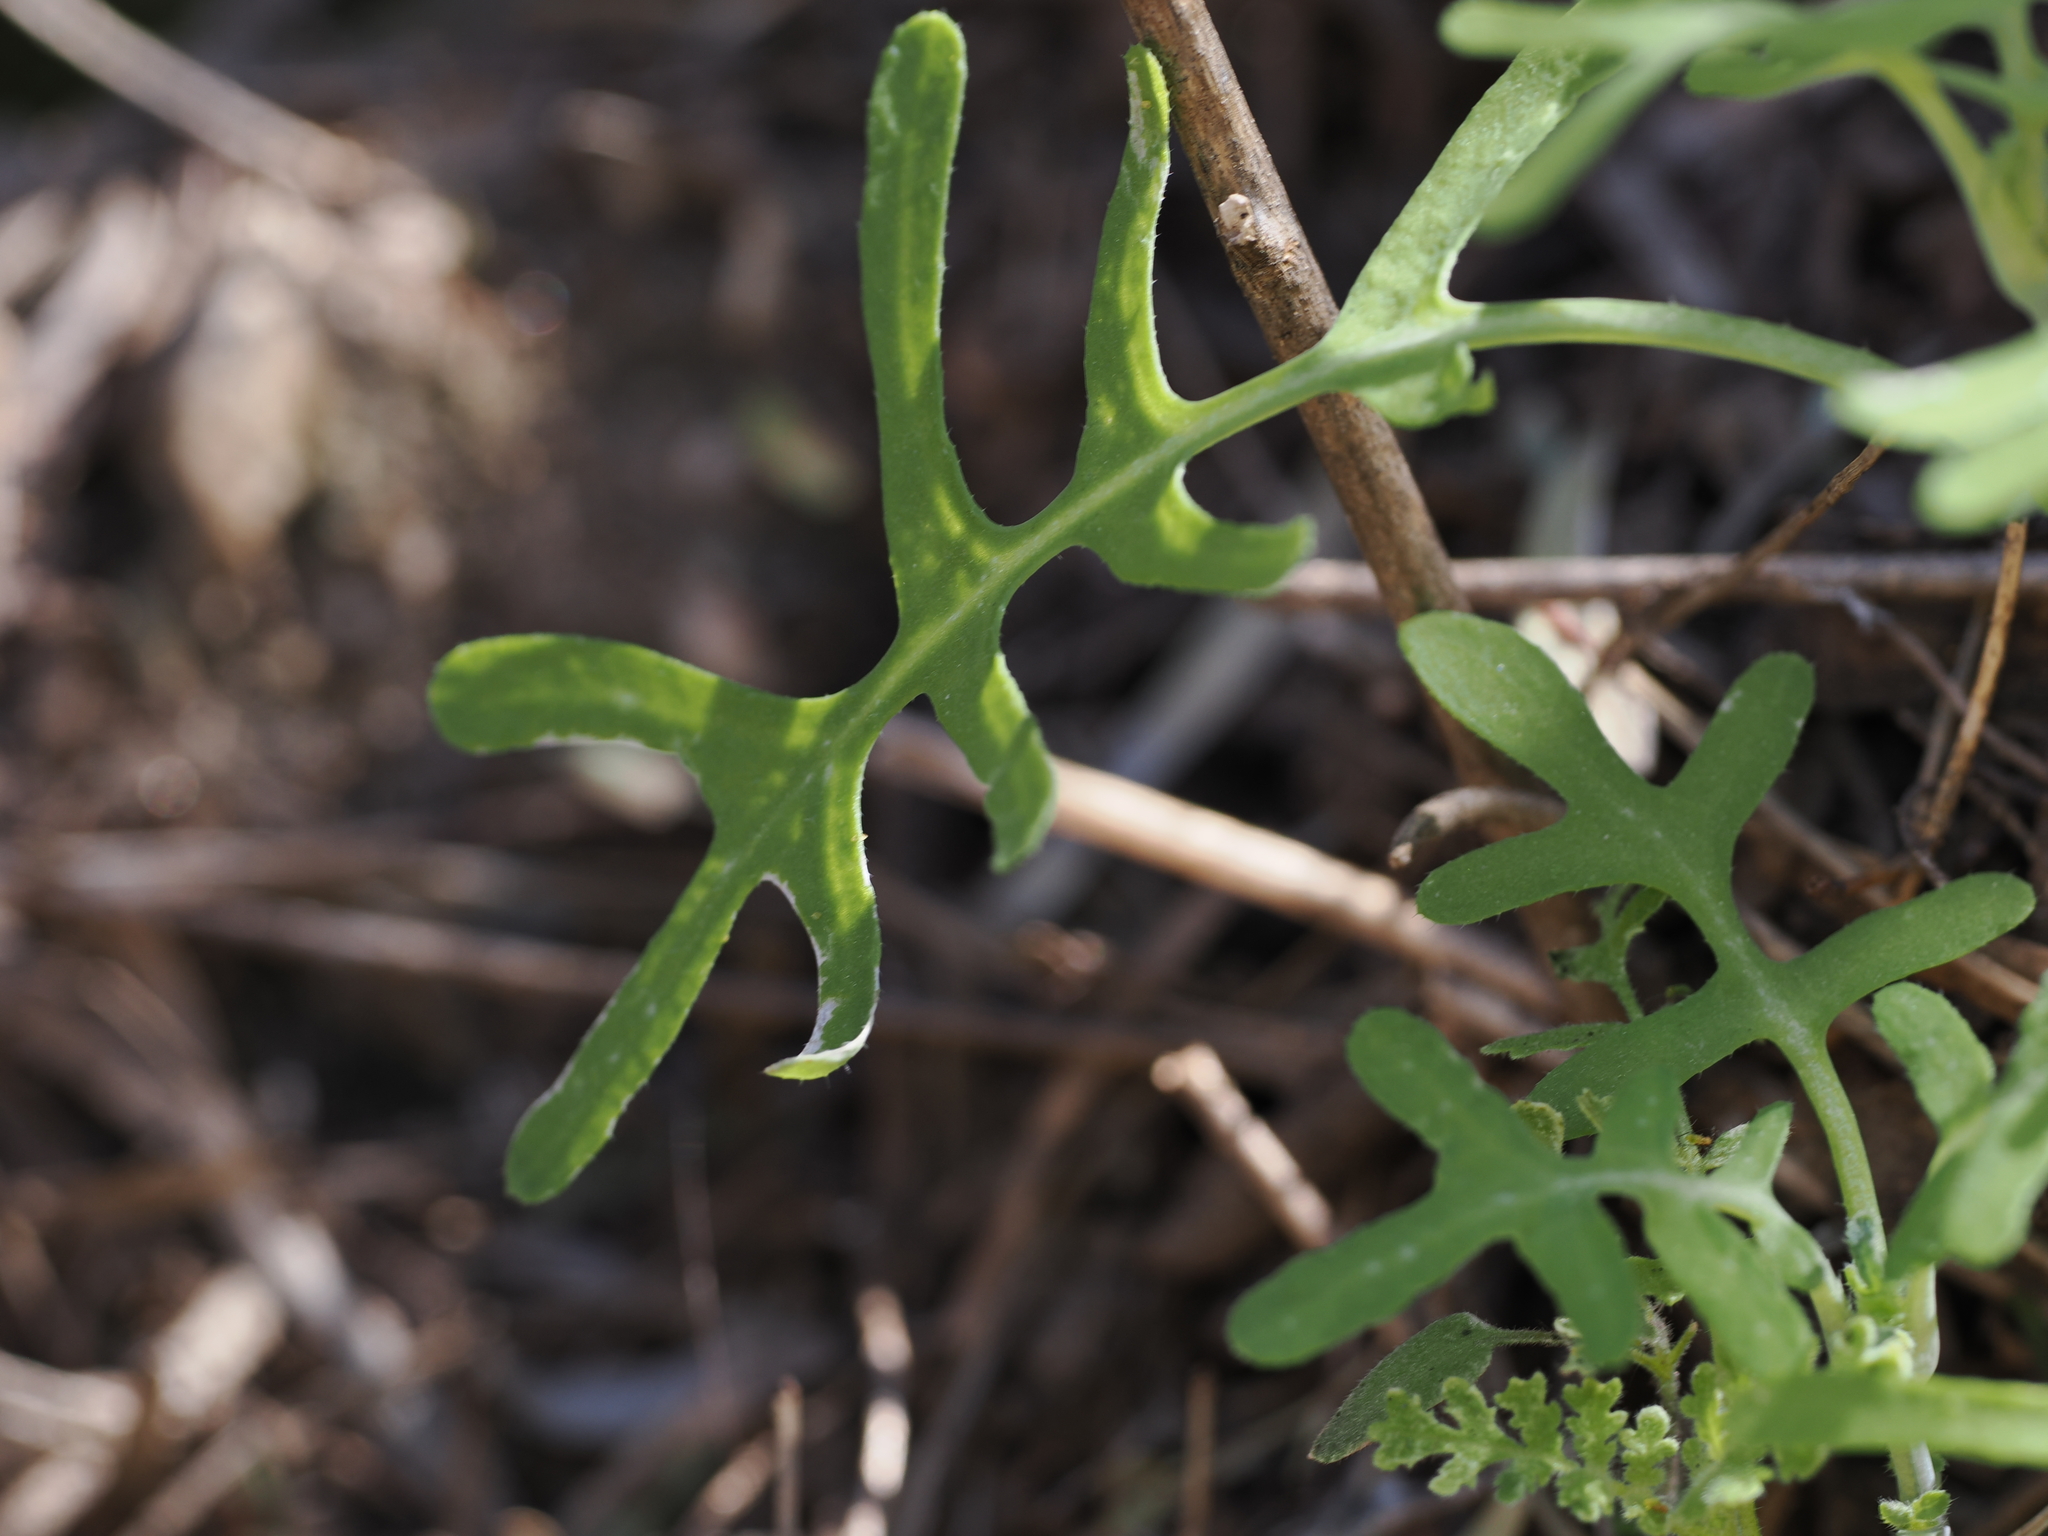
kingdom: Plantae
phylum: Tracheophyta
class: Magnoliopsida
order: Boraginales
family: Hydrophyllaceae
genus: Pholistoma
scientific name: Pholistoma membranaceum
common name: White fiesta-flower
